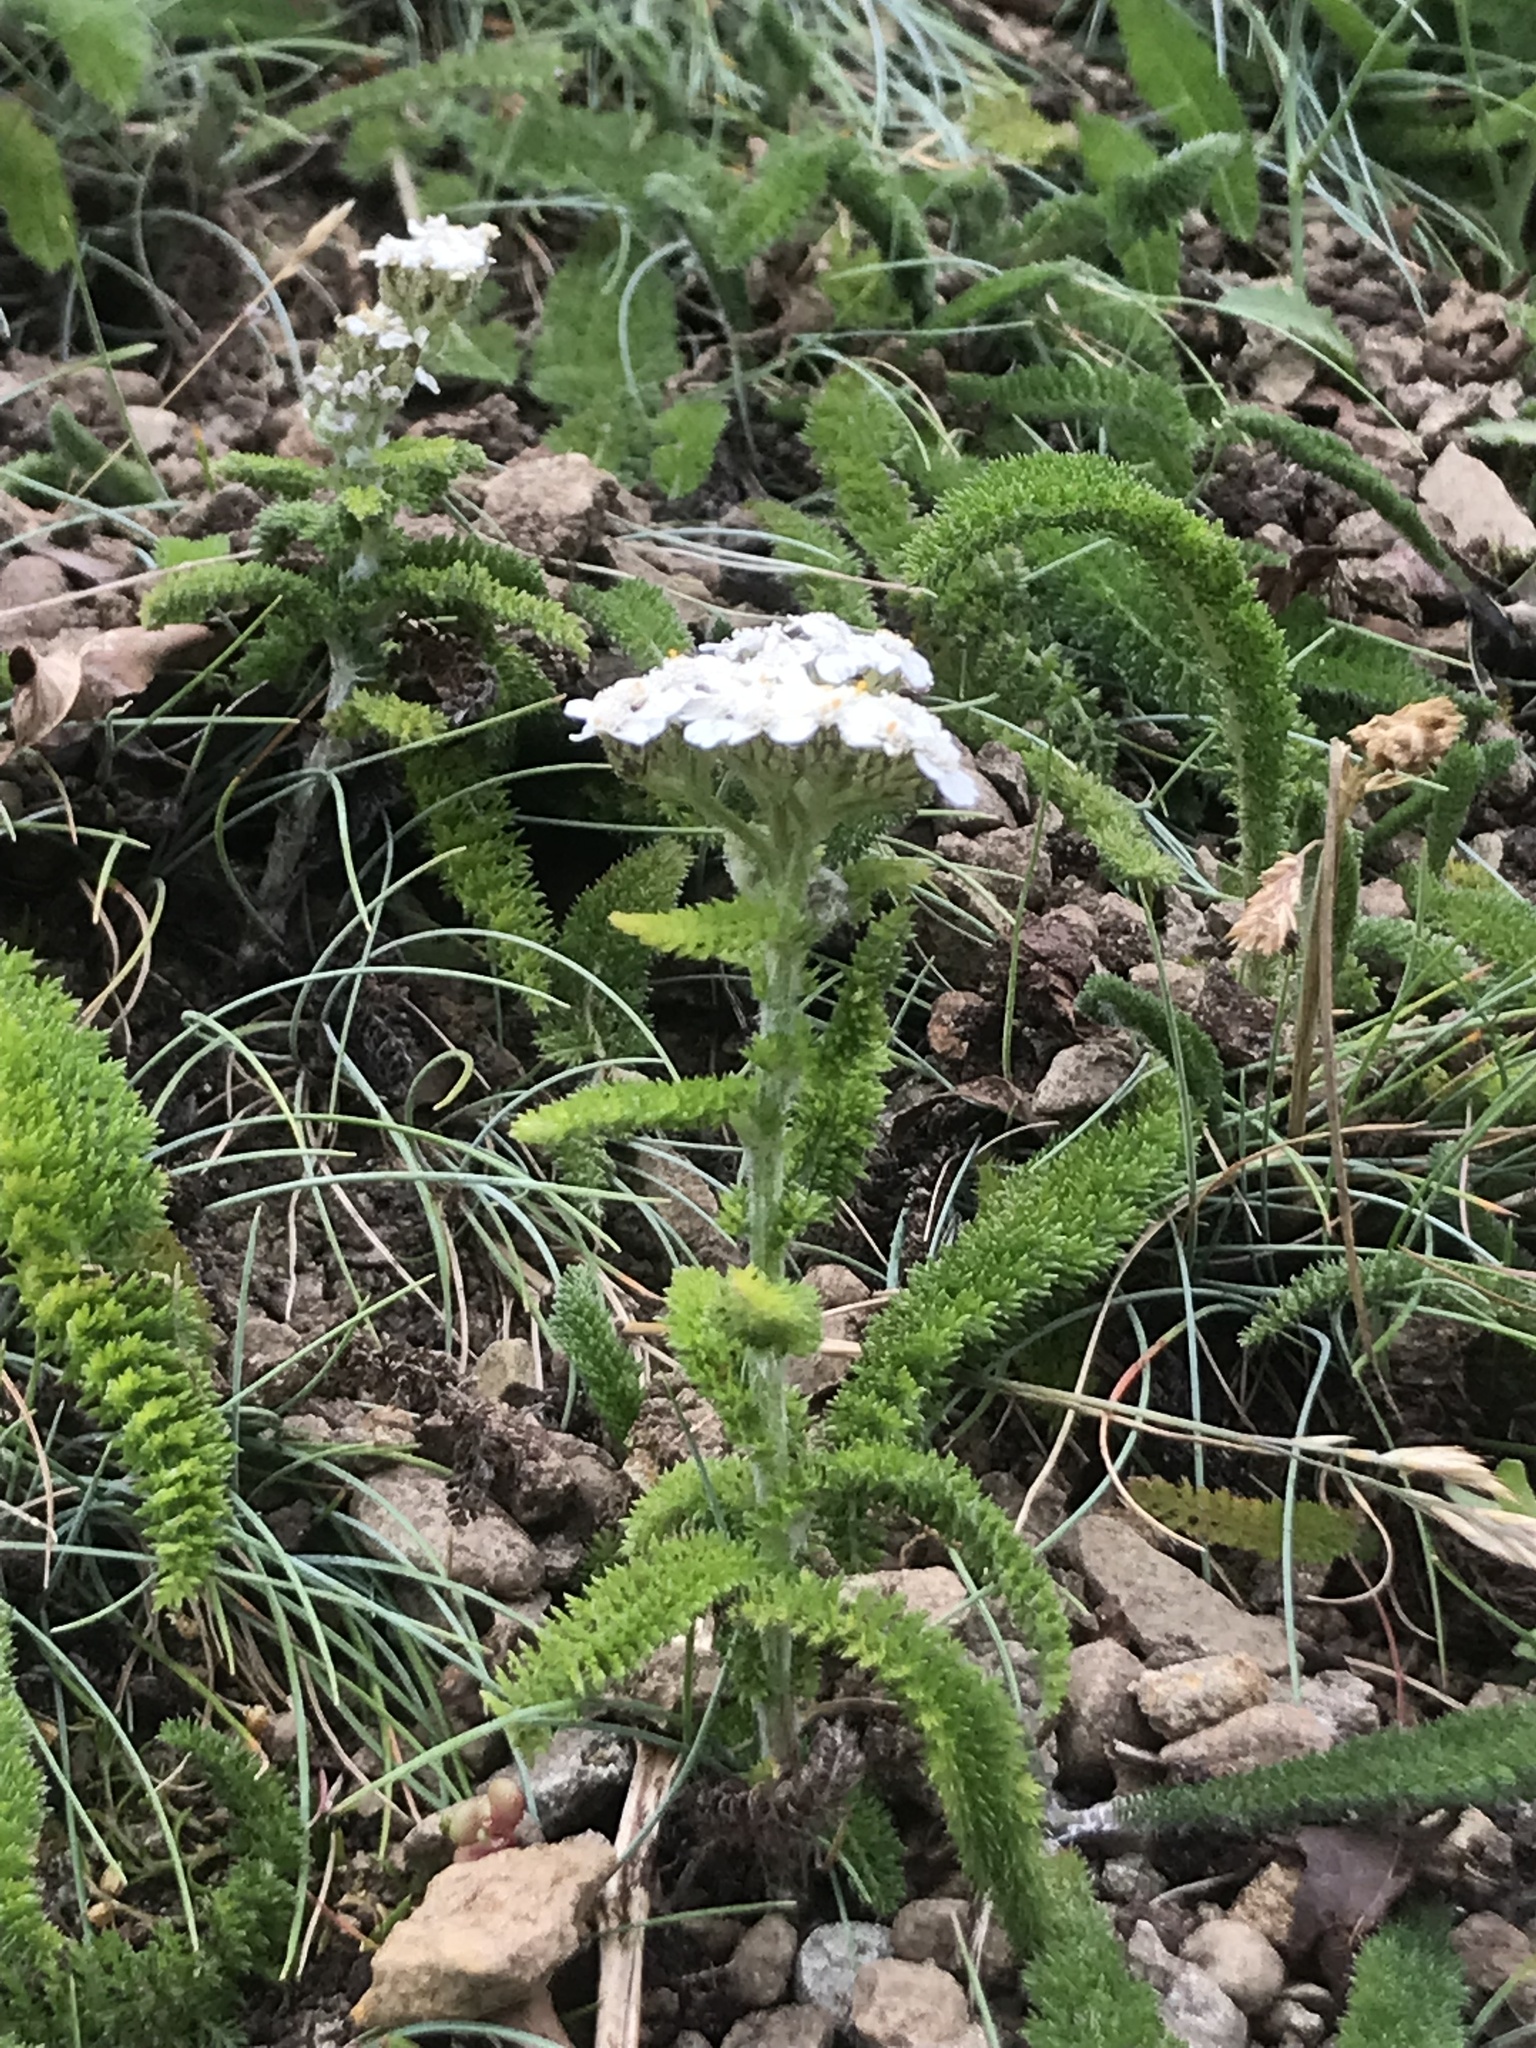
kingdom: Plantae
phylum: Tracheophyta
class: Magnoliopsida
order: Asterales
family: Asteraceae
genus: Achillea
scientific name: Achillea millefolium
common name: Yarrow
